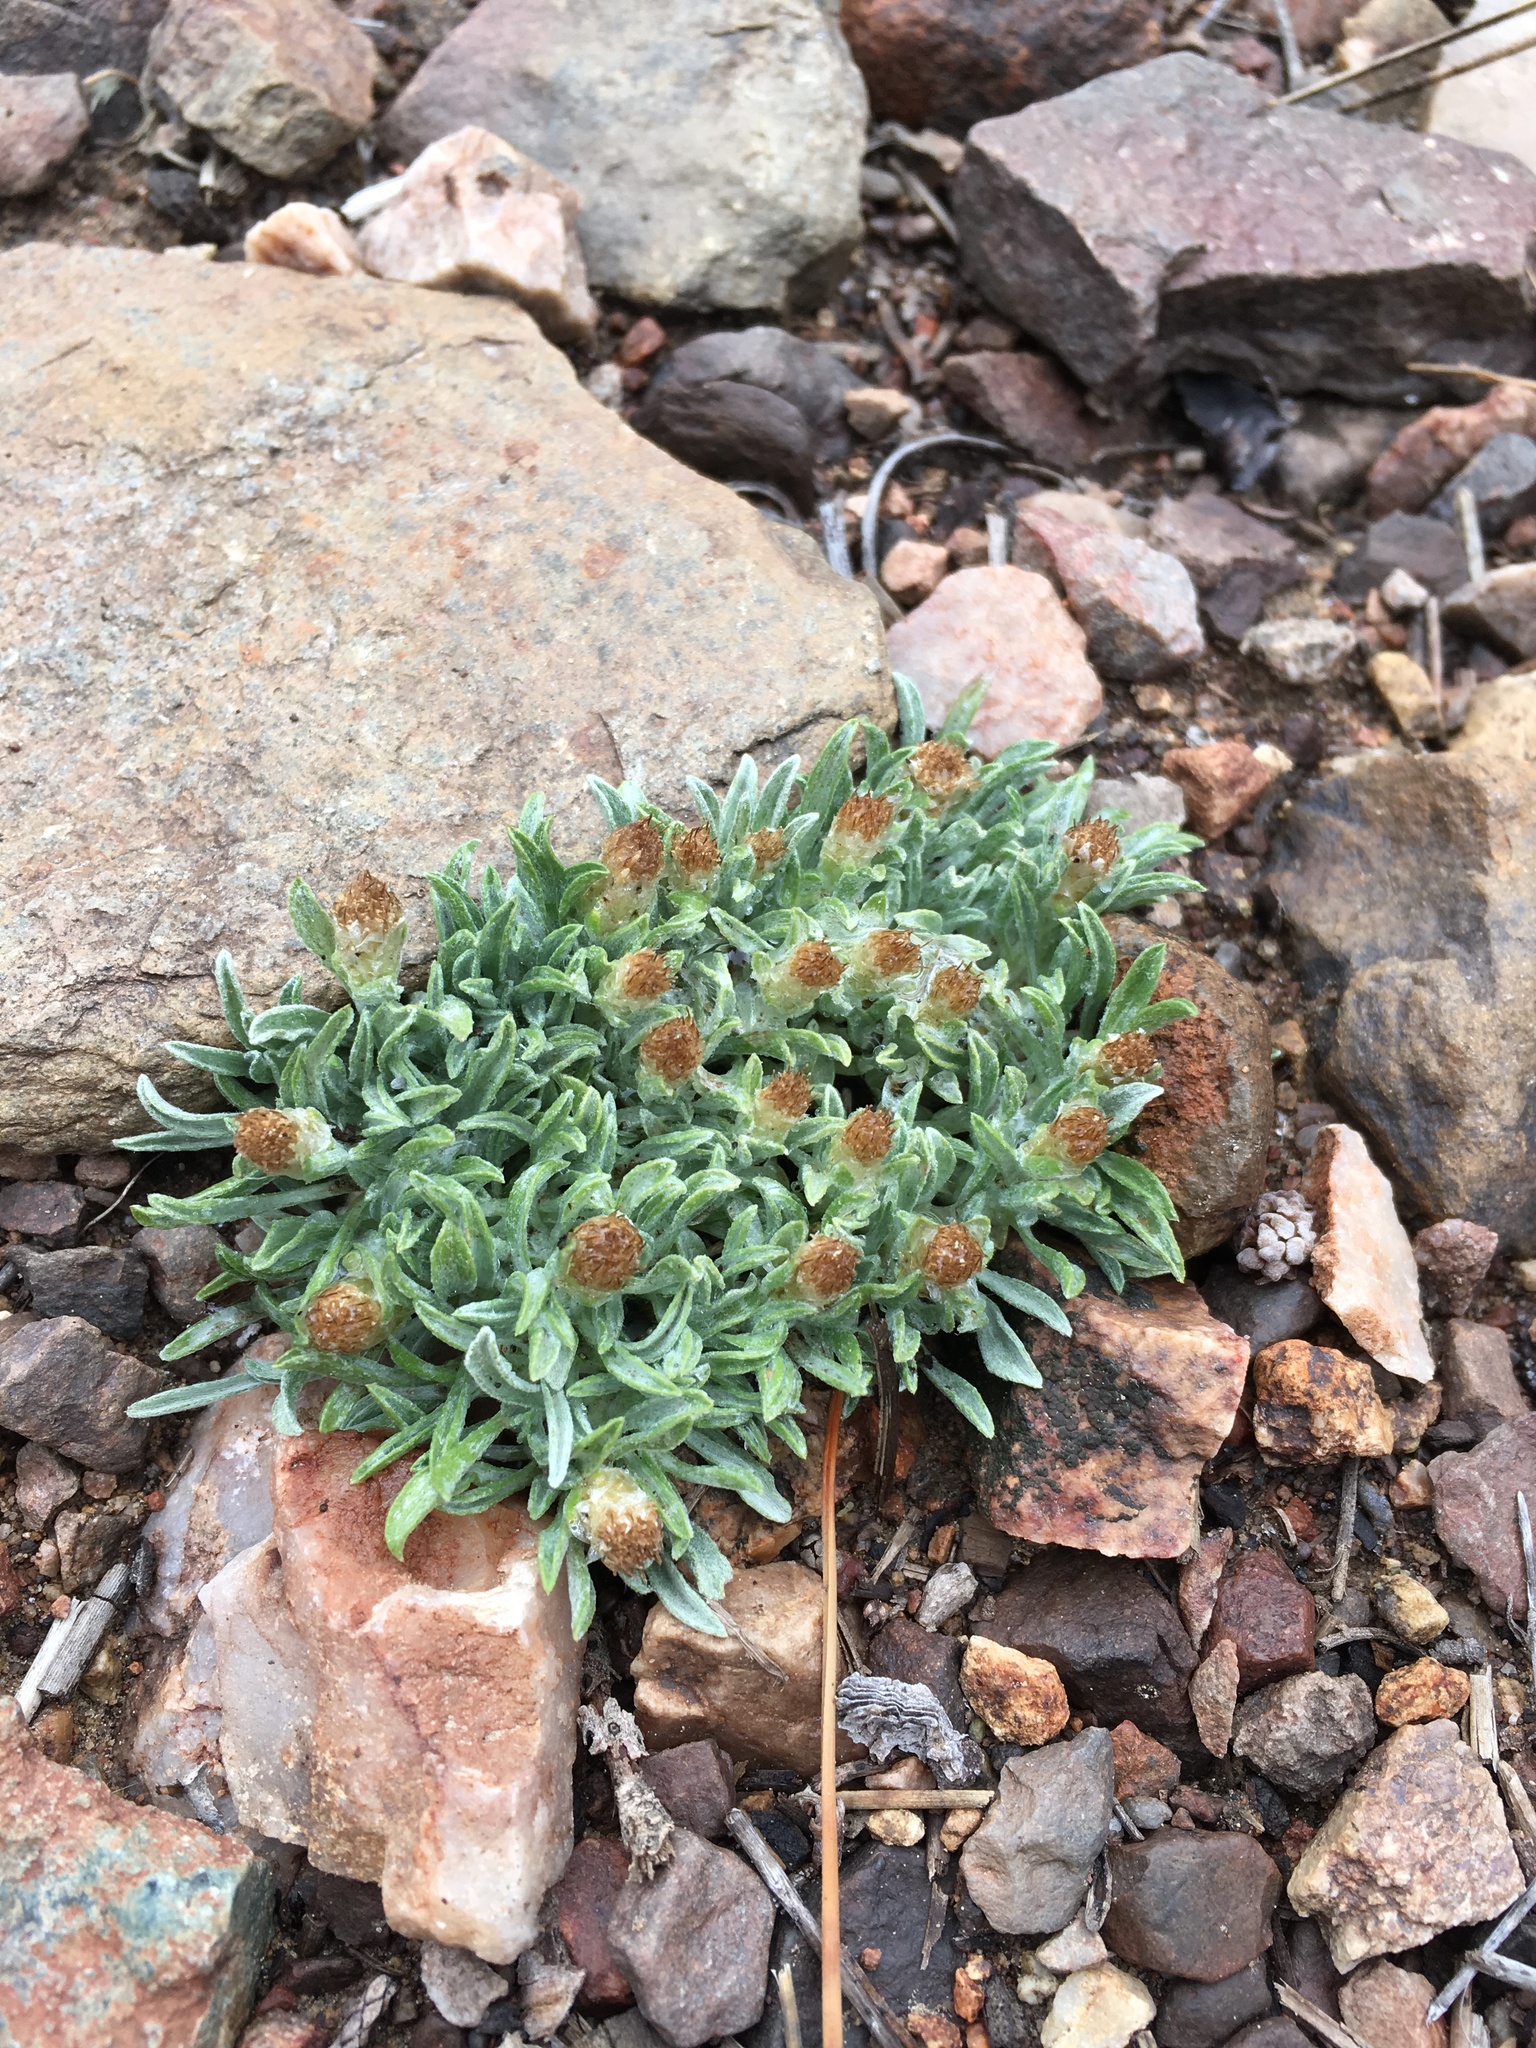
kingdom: Plantae
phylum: Tracheophyta
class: Magnoliopsida
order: Asterales
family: Asteraceae
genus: Antennaria
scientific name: Antennaria dimorpha
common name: Cushion pussytoes
